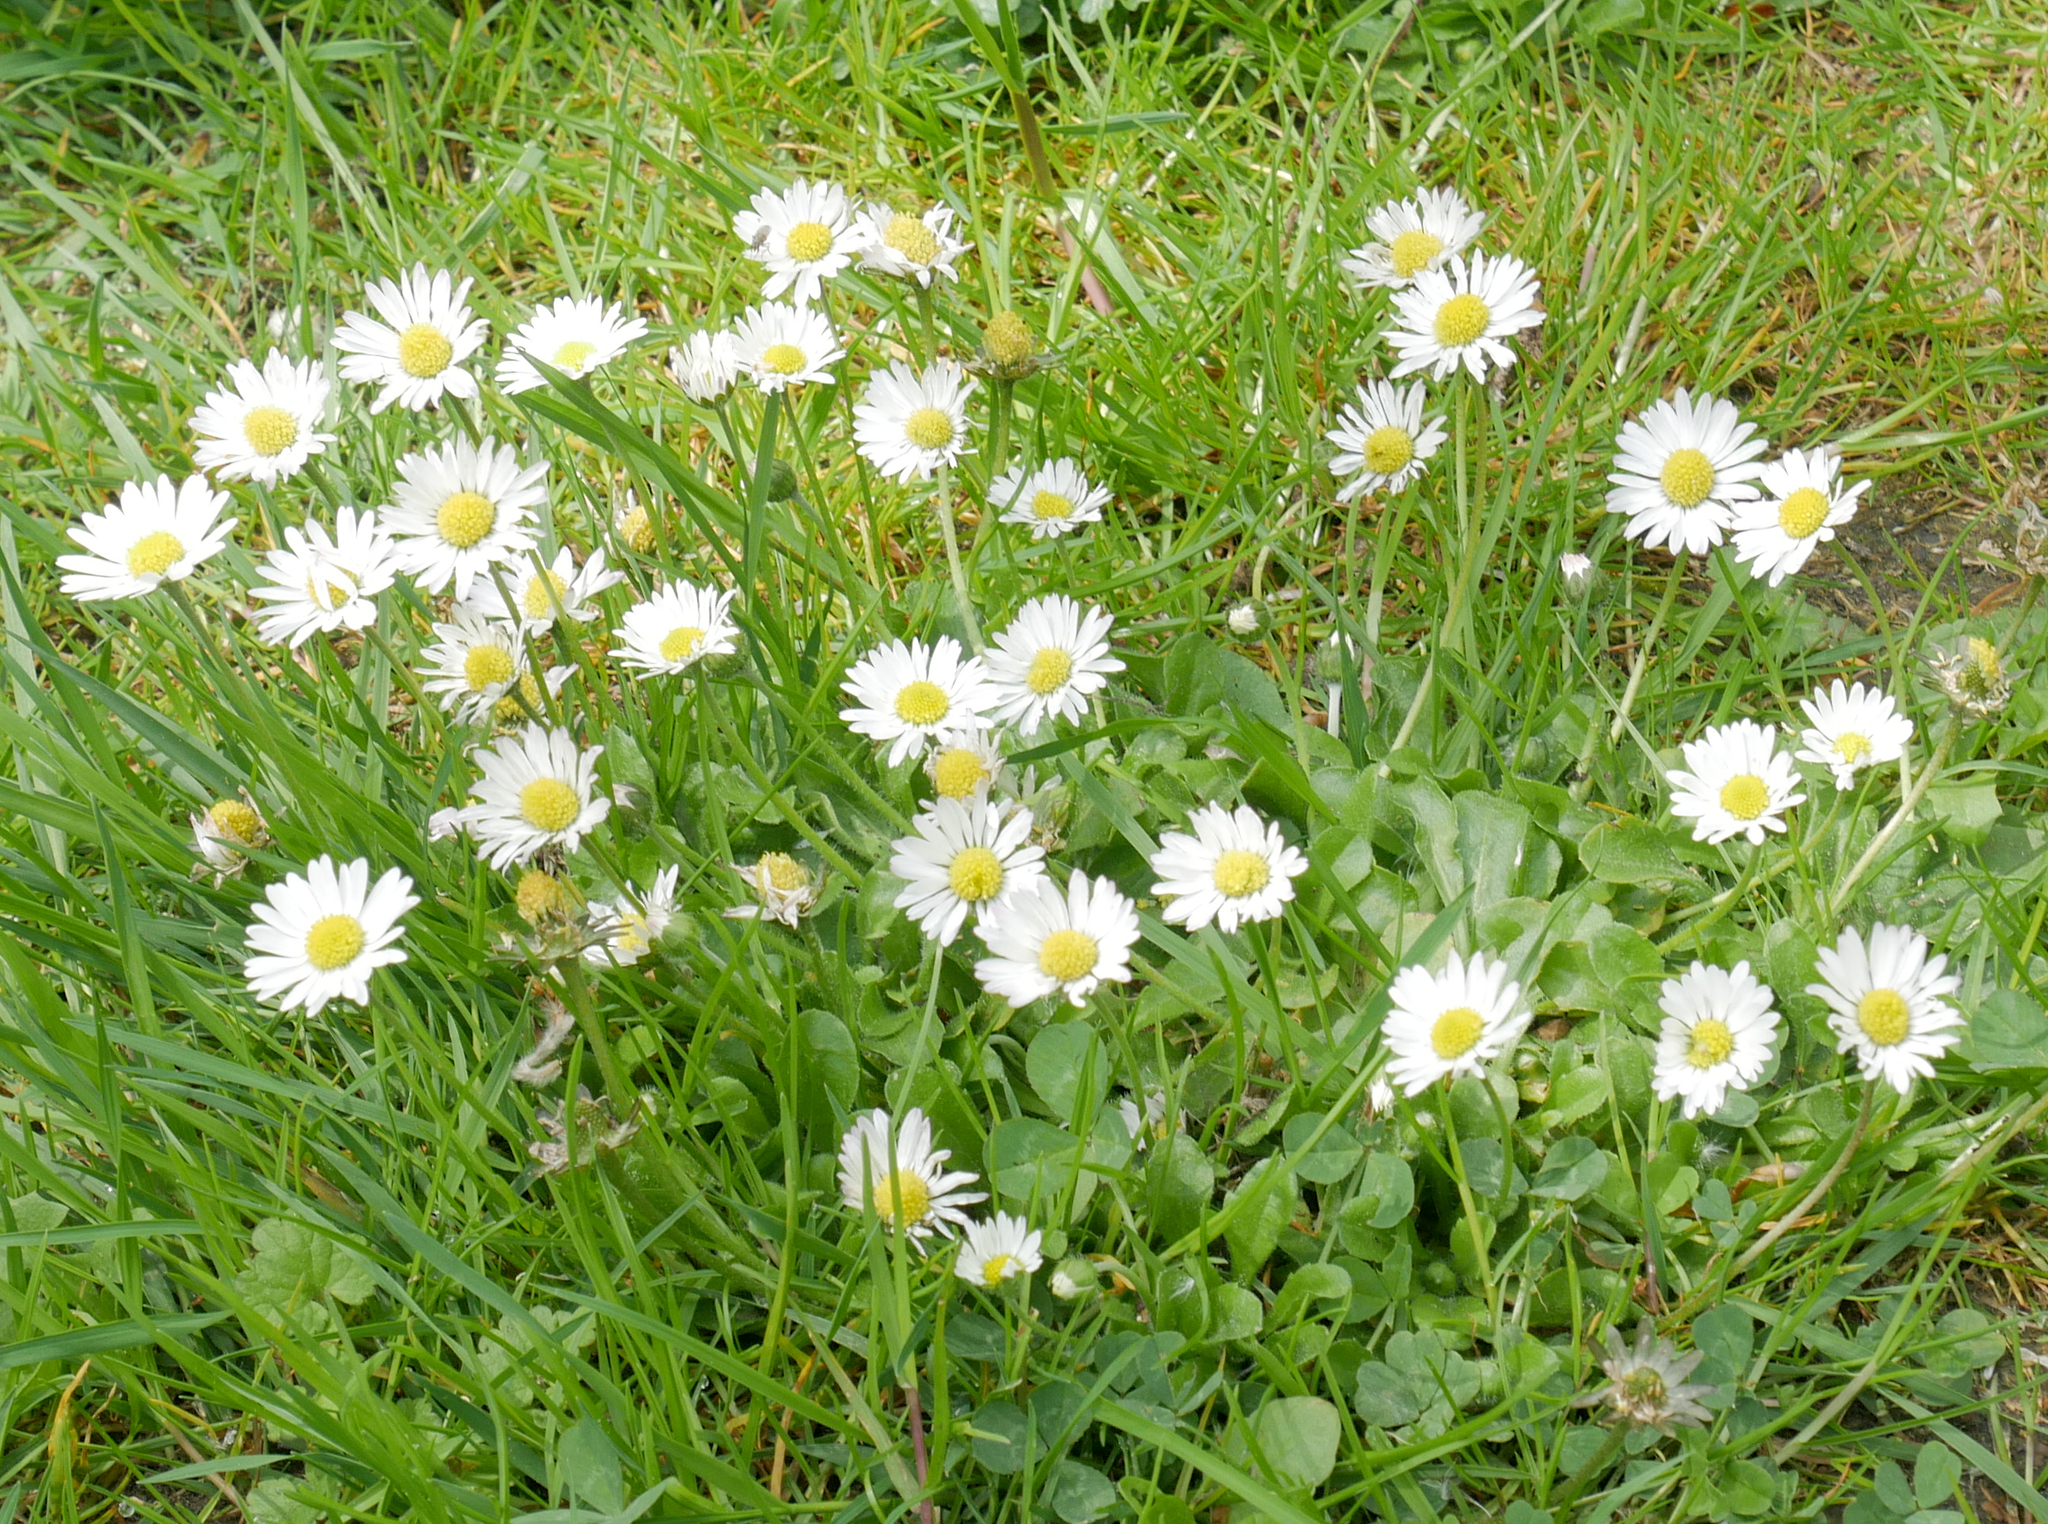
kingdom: Plantae
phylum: Tracheophyta
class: Magnoliopsida
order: Asterales
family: Asteraceae
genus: Bellis
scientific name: Bellis perennis
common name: Lawndaisy
